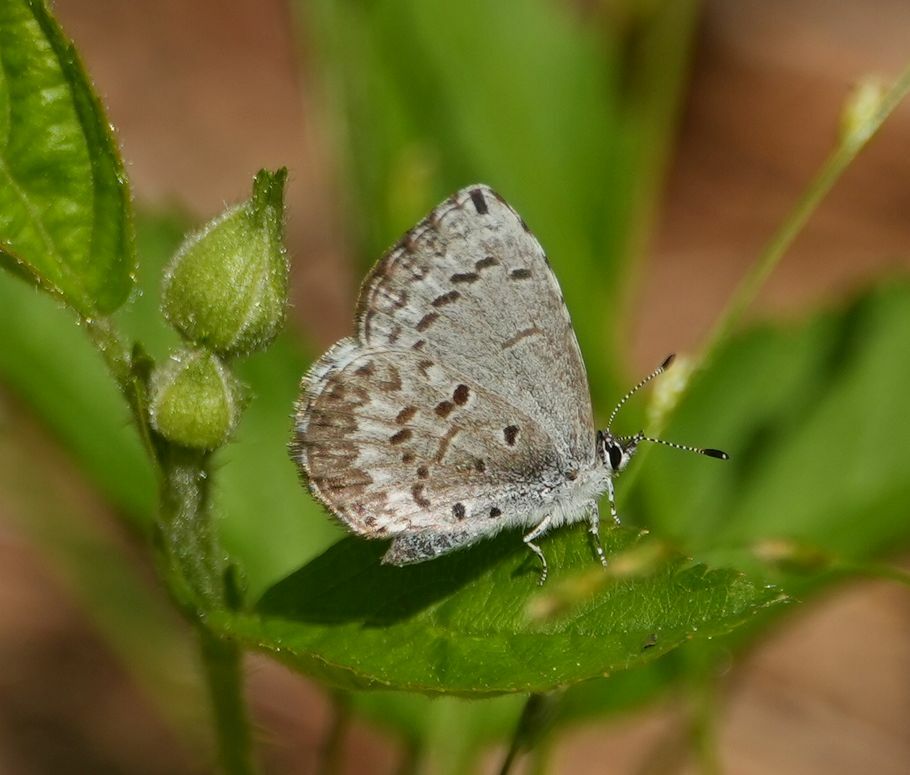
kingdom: Animalia
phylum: Arthropoda
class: Insecta
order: Lepidoptera
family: Lycaenidae
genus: Celastrina
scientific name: Celastrina lucia
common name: Lucia azure
